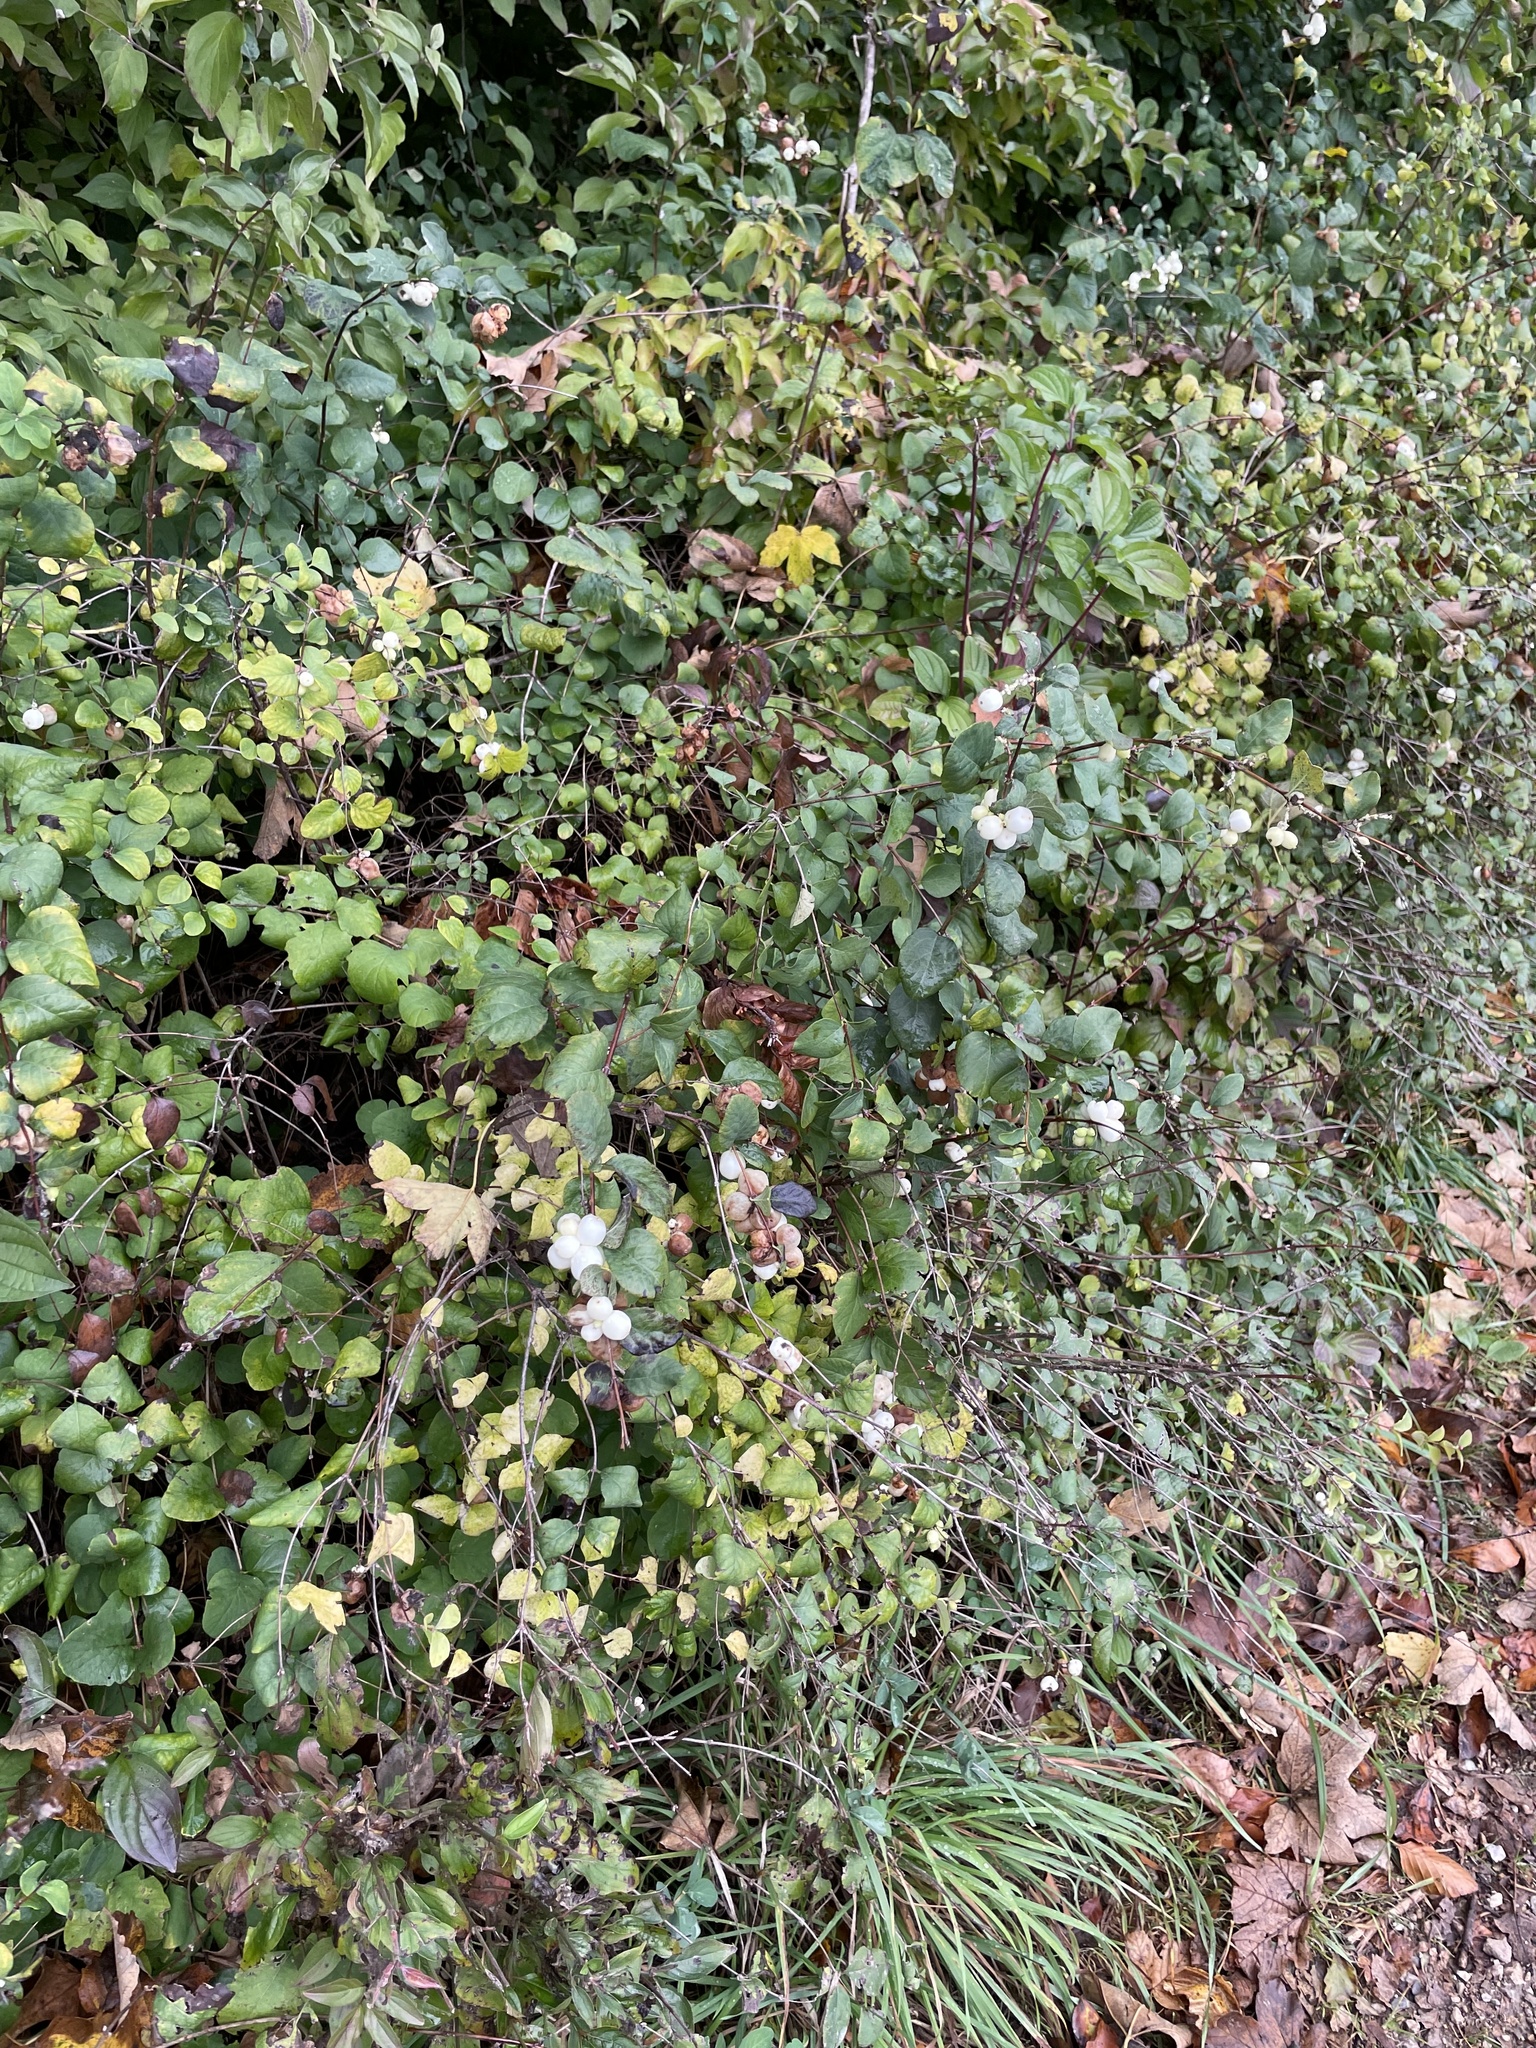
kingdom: Plantae
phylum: Tracheophyta
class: Magnoliopsida
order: Dipsacales
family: Caprifoliaceae
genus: Symphoricarpos
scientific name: Symphoricarpos albus
